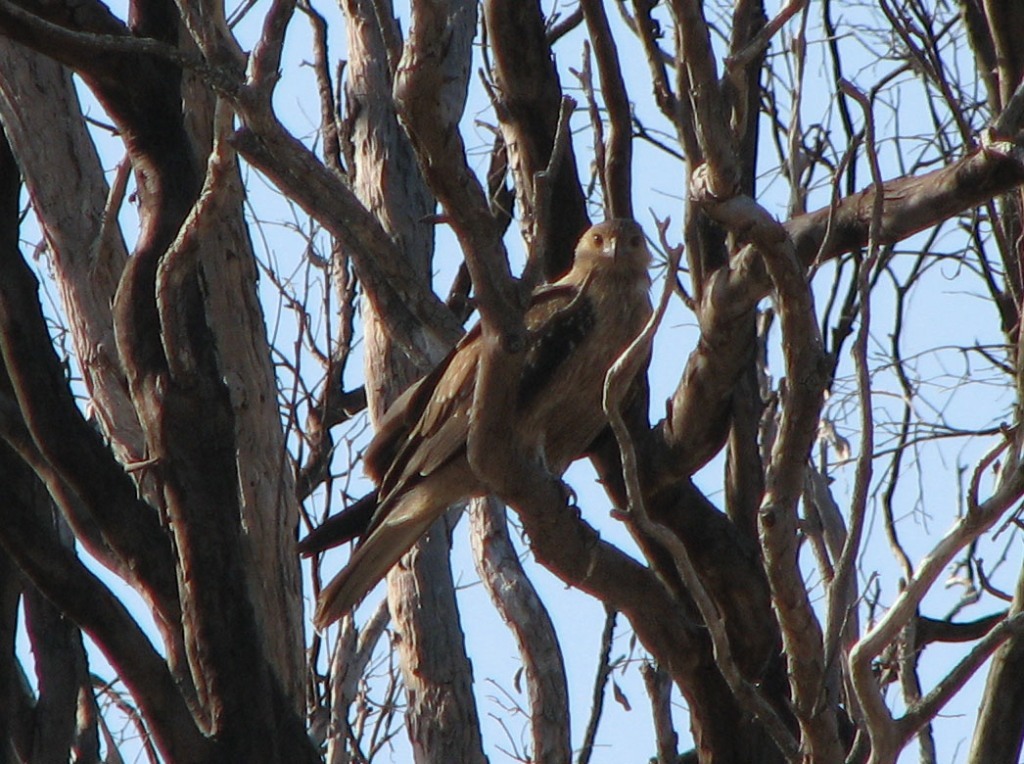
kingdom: Animalia
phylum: Chordata
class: Aves
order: Accipitriformes
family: Accipitridae
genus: Haliastur
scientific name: Haliastur sphenurus
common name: Whistling kite
